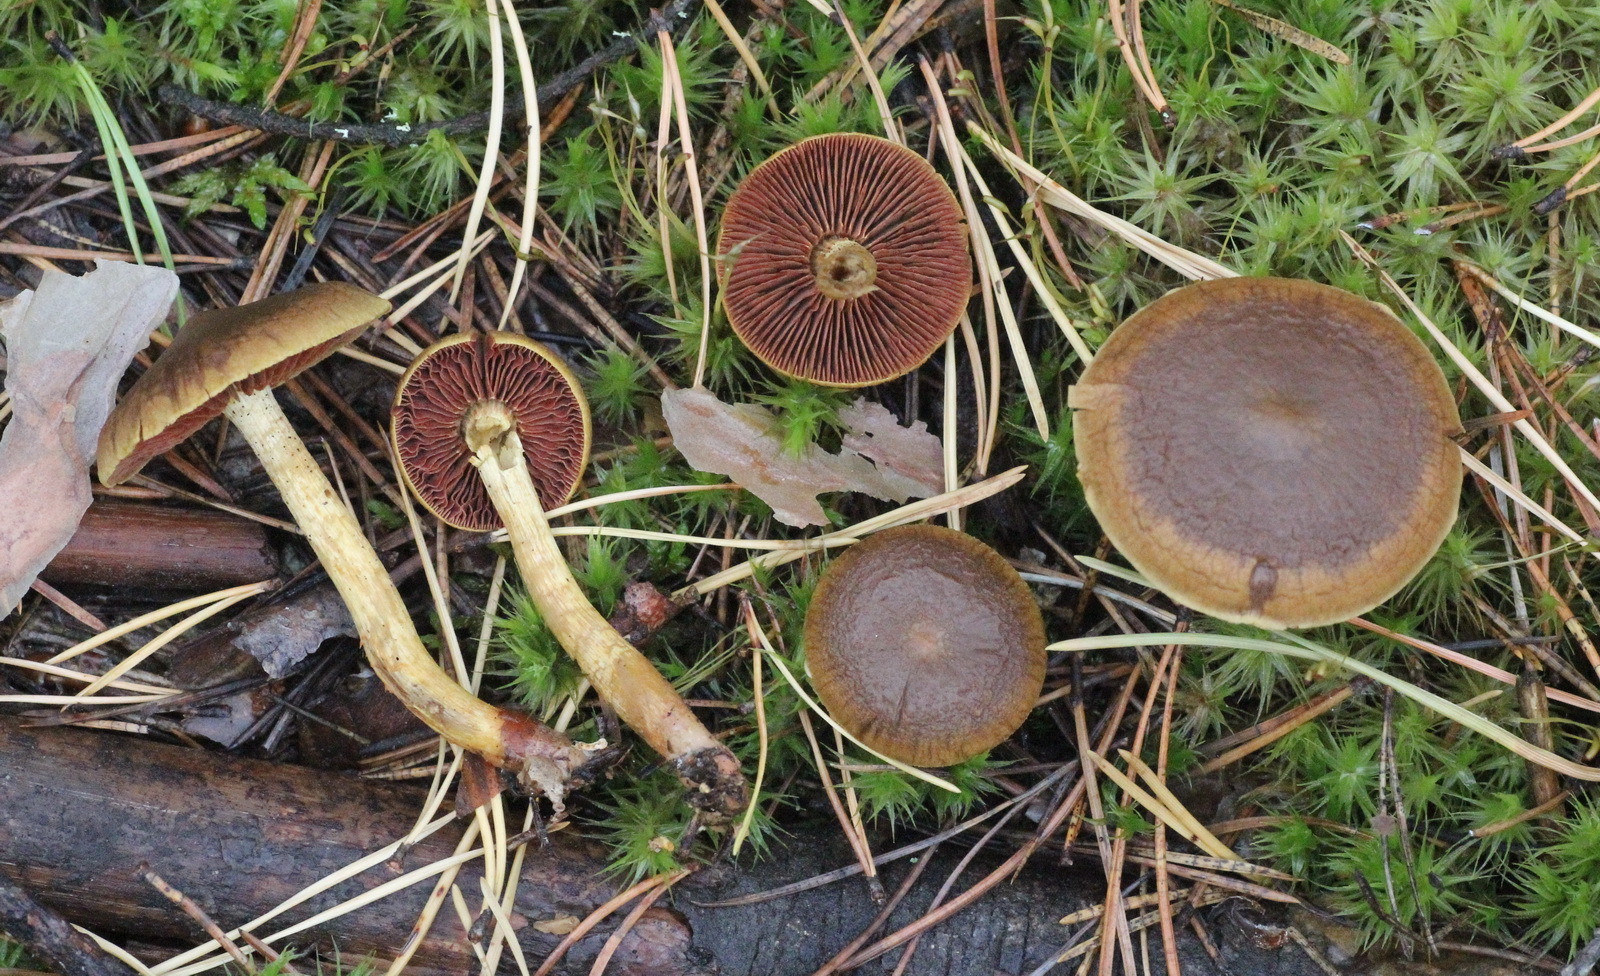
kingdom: Fungi
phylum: Basidiomycota
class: Agaricomycetes
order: Agaricales
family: Cortinariaceae
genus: Cortinarius
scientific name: Cortinarius semisanguineus
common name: Surprise webcap
